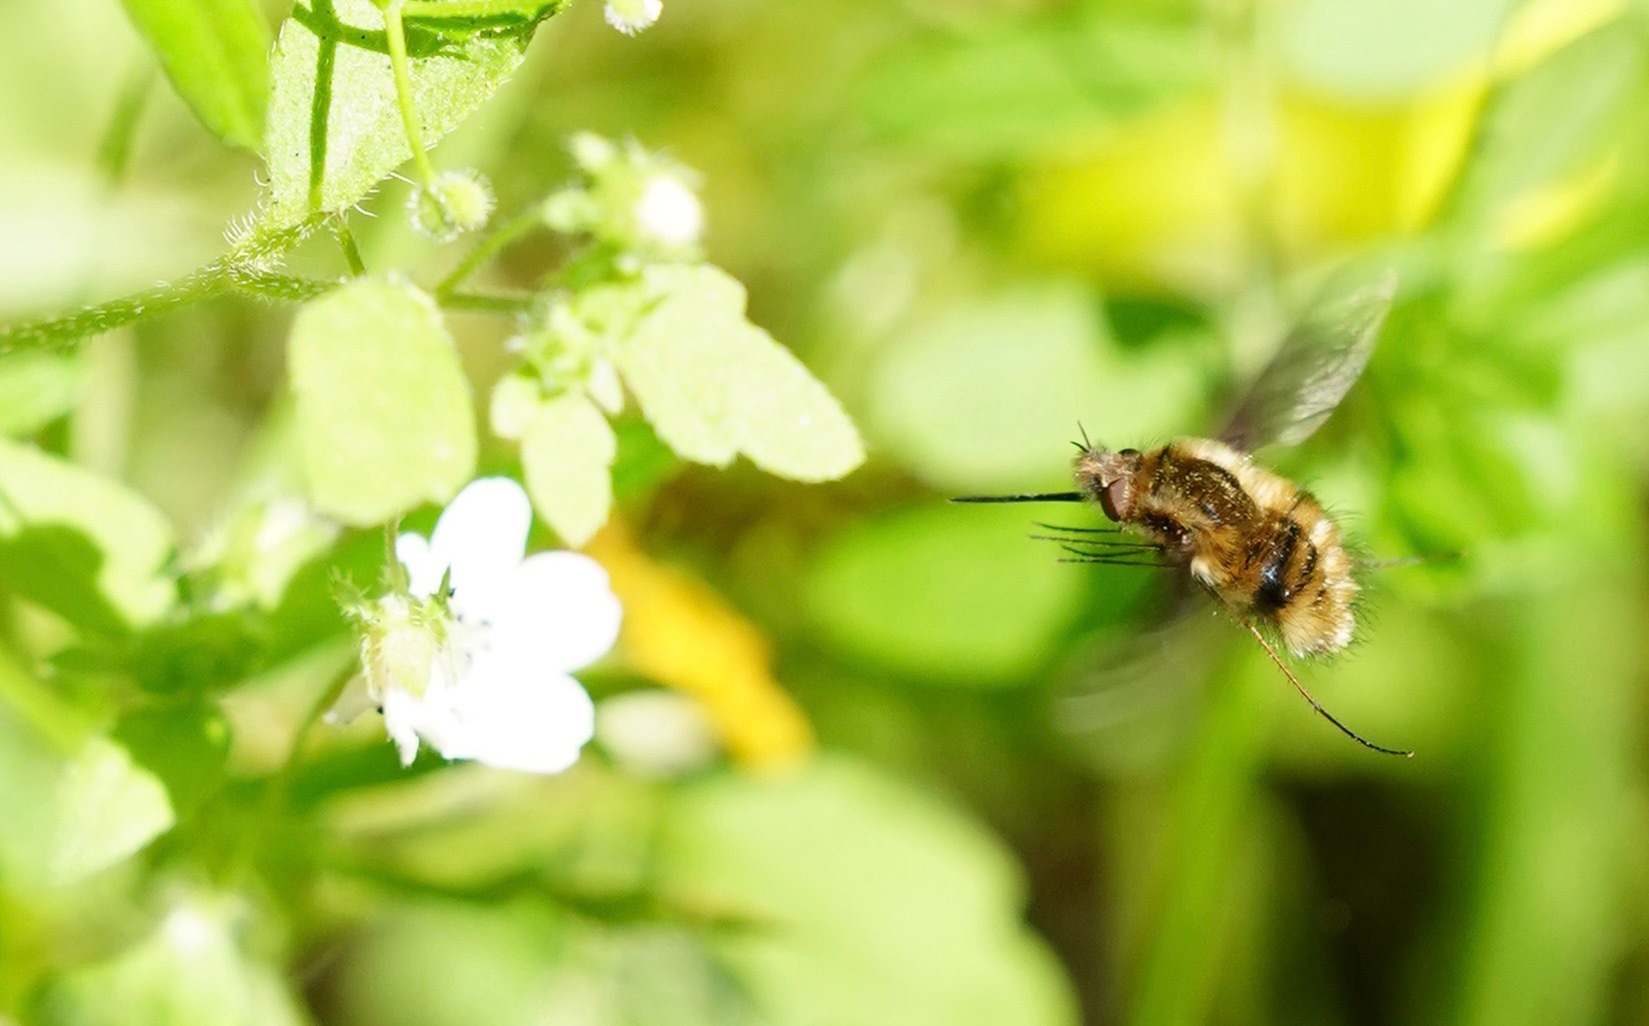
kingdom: Animalia
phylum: Arthropoda
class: Insecta
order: Diptera
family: Bombyliidae
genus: Bombylius
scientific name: Bombylius major
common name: Bee fly
